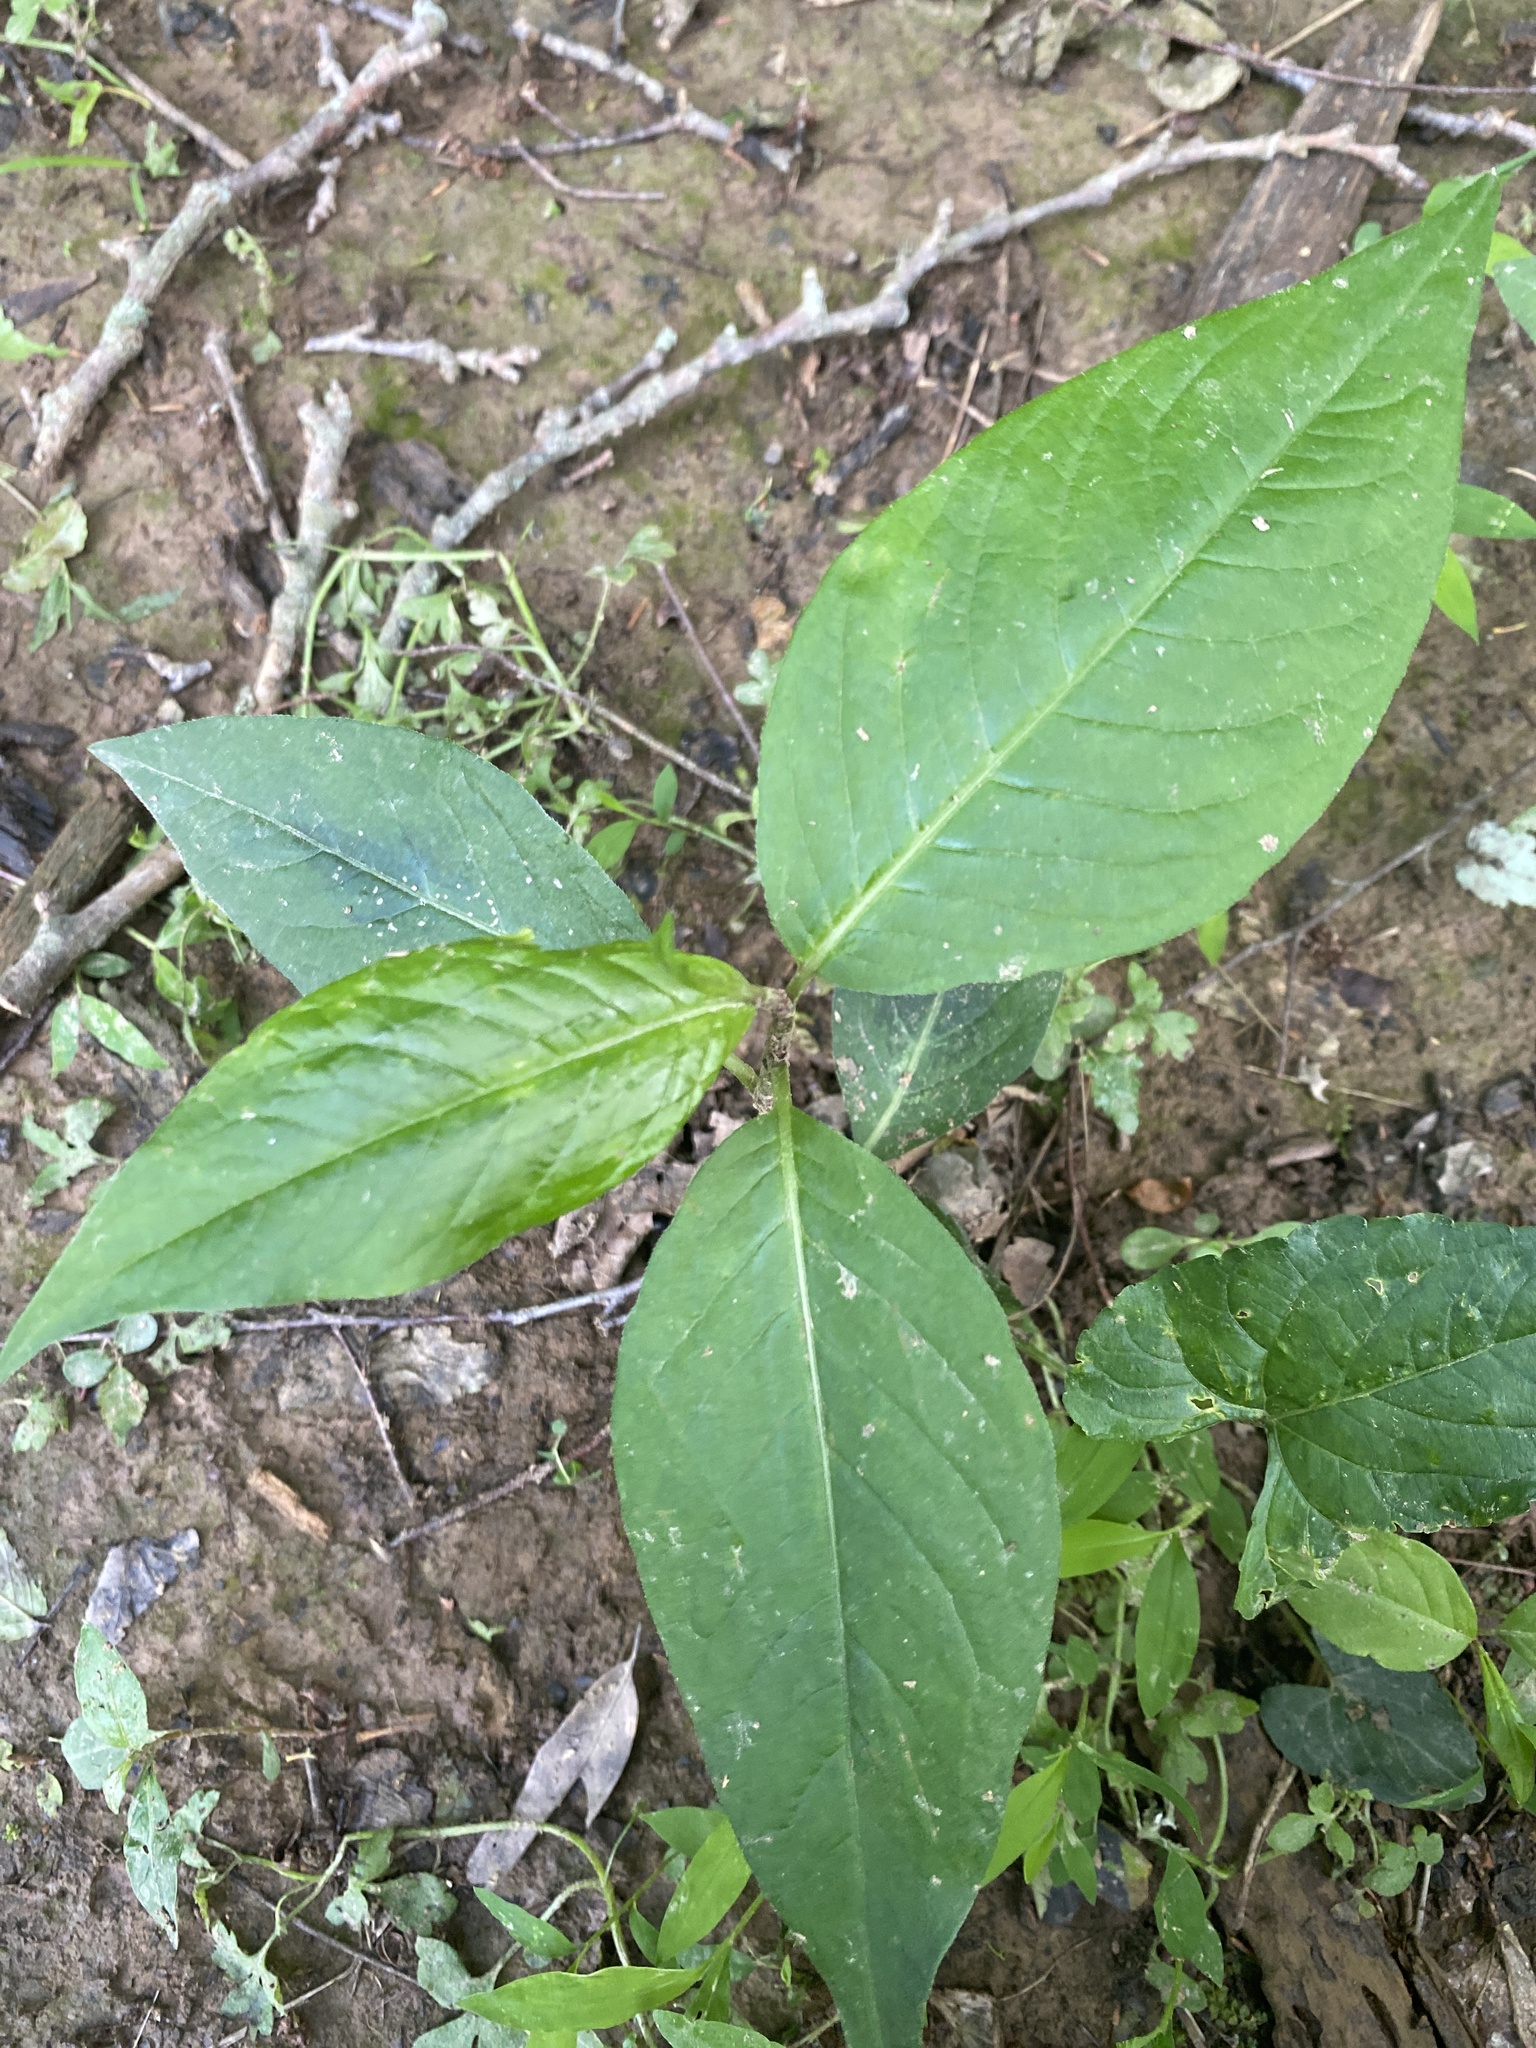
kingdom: Plantae
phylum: Tracheophyta
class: Magnoliopsida
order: Caryophyllales
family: Polygonaceae
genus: Persicaria
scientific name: Persicaria virginiana
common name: Jumpseed
